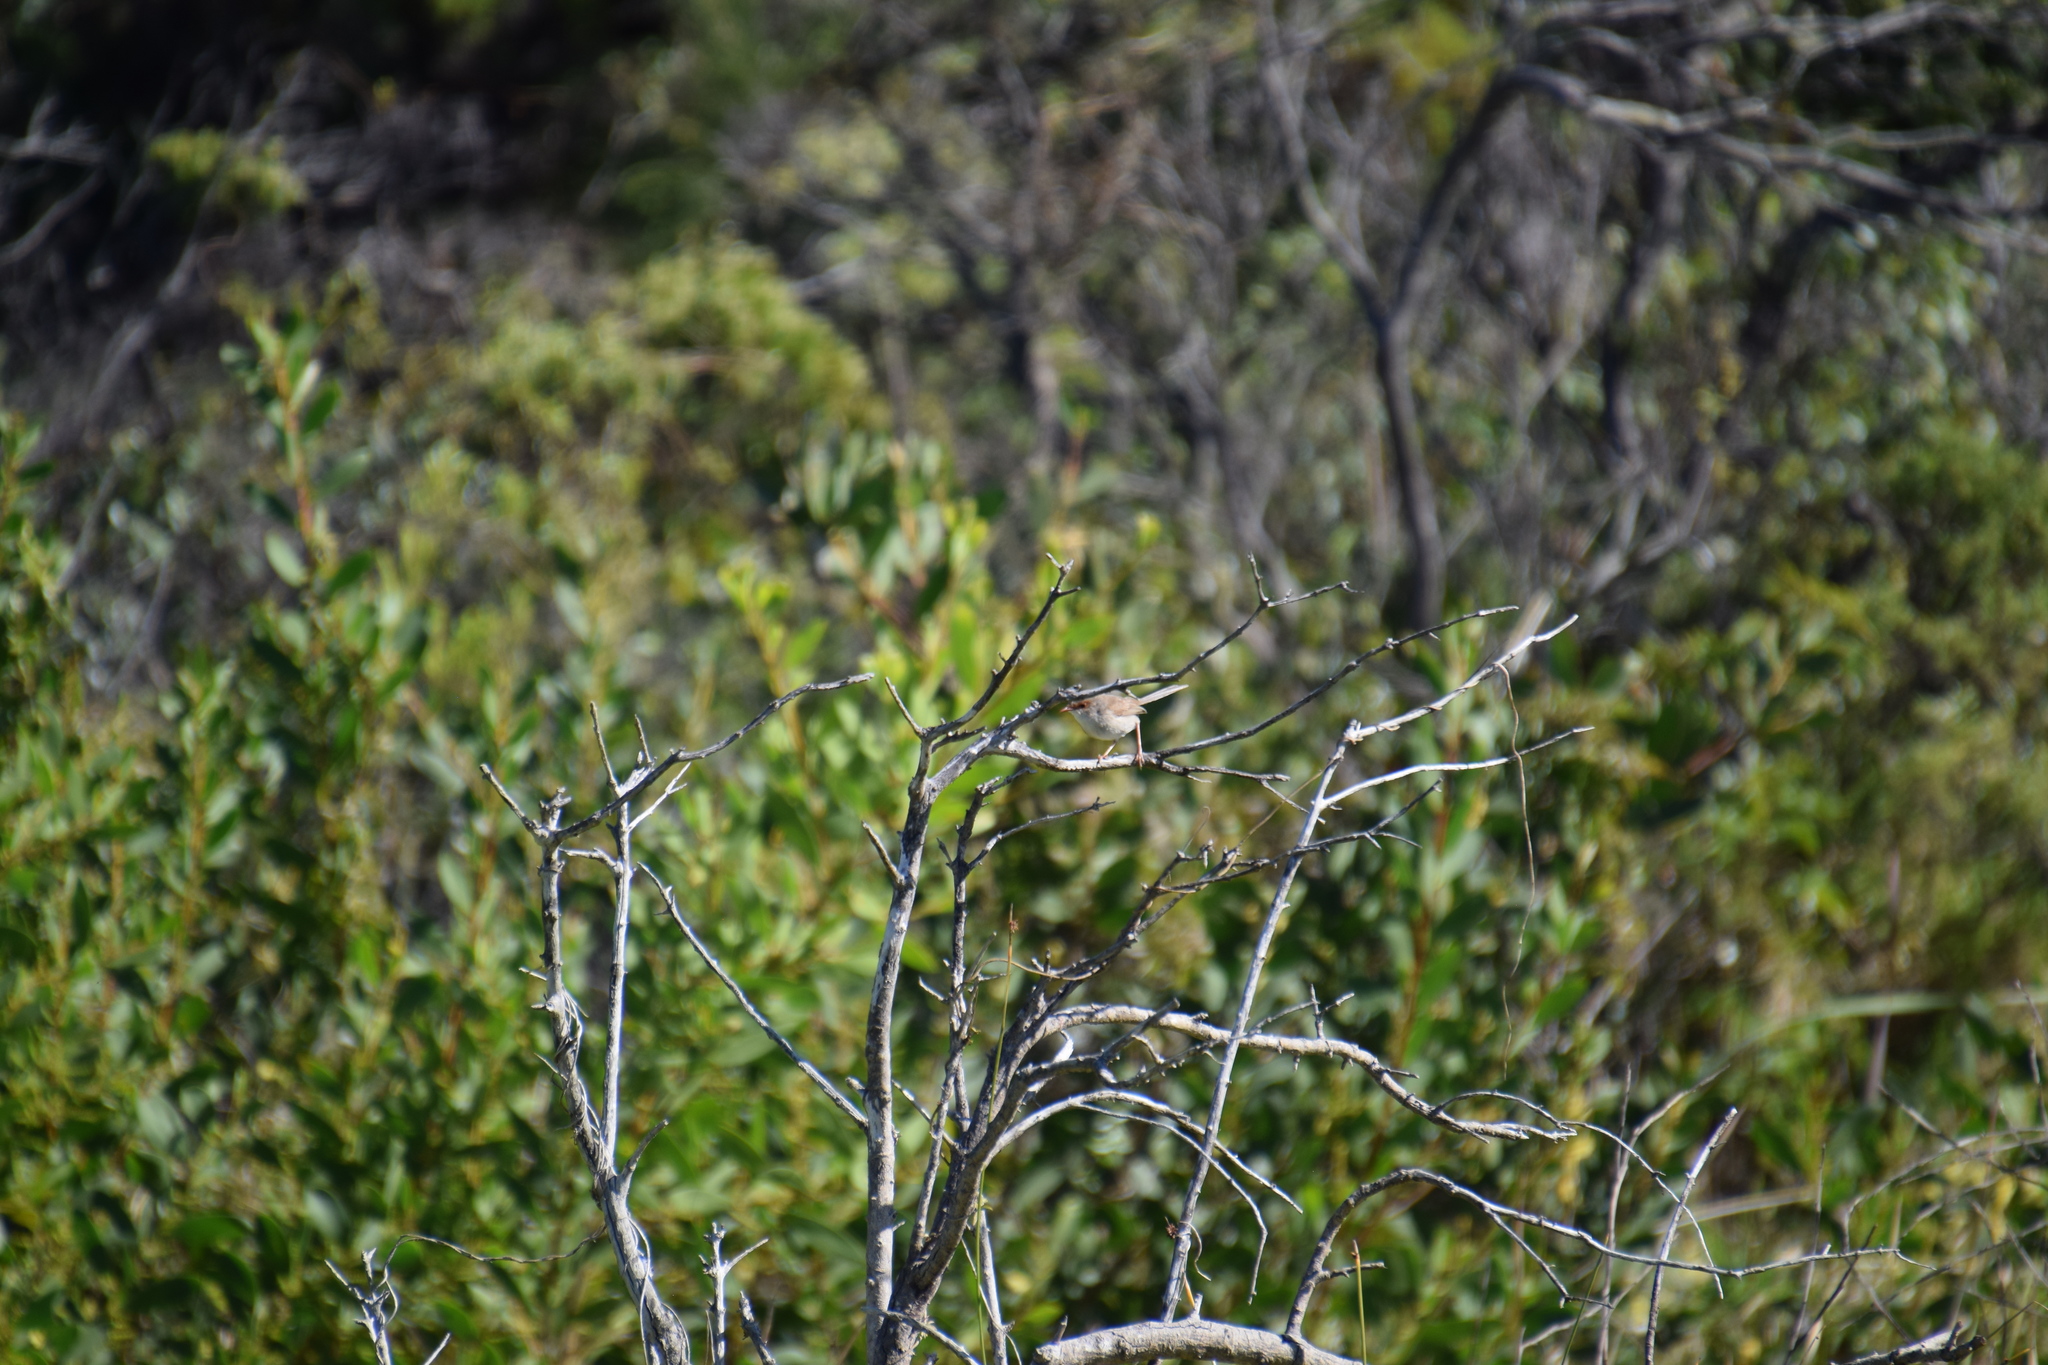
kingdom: Animalia
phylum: Chordata
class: Aves
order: Passeriformes
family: Maluridae
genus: Malurus
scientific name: Malurus cyaneus
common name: Superb fairywren
